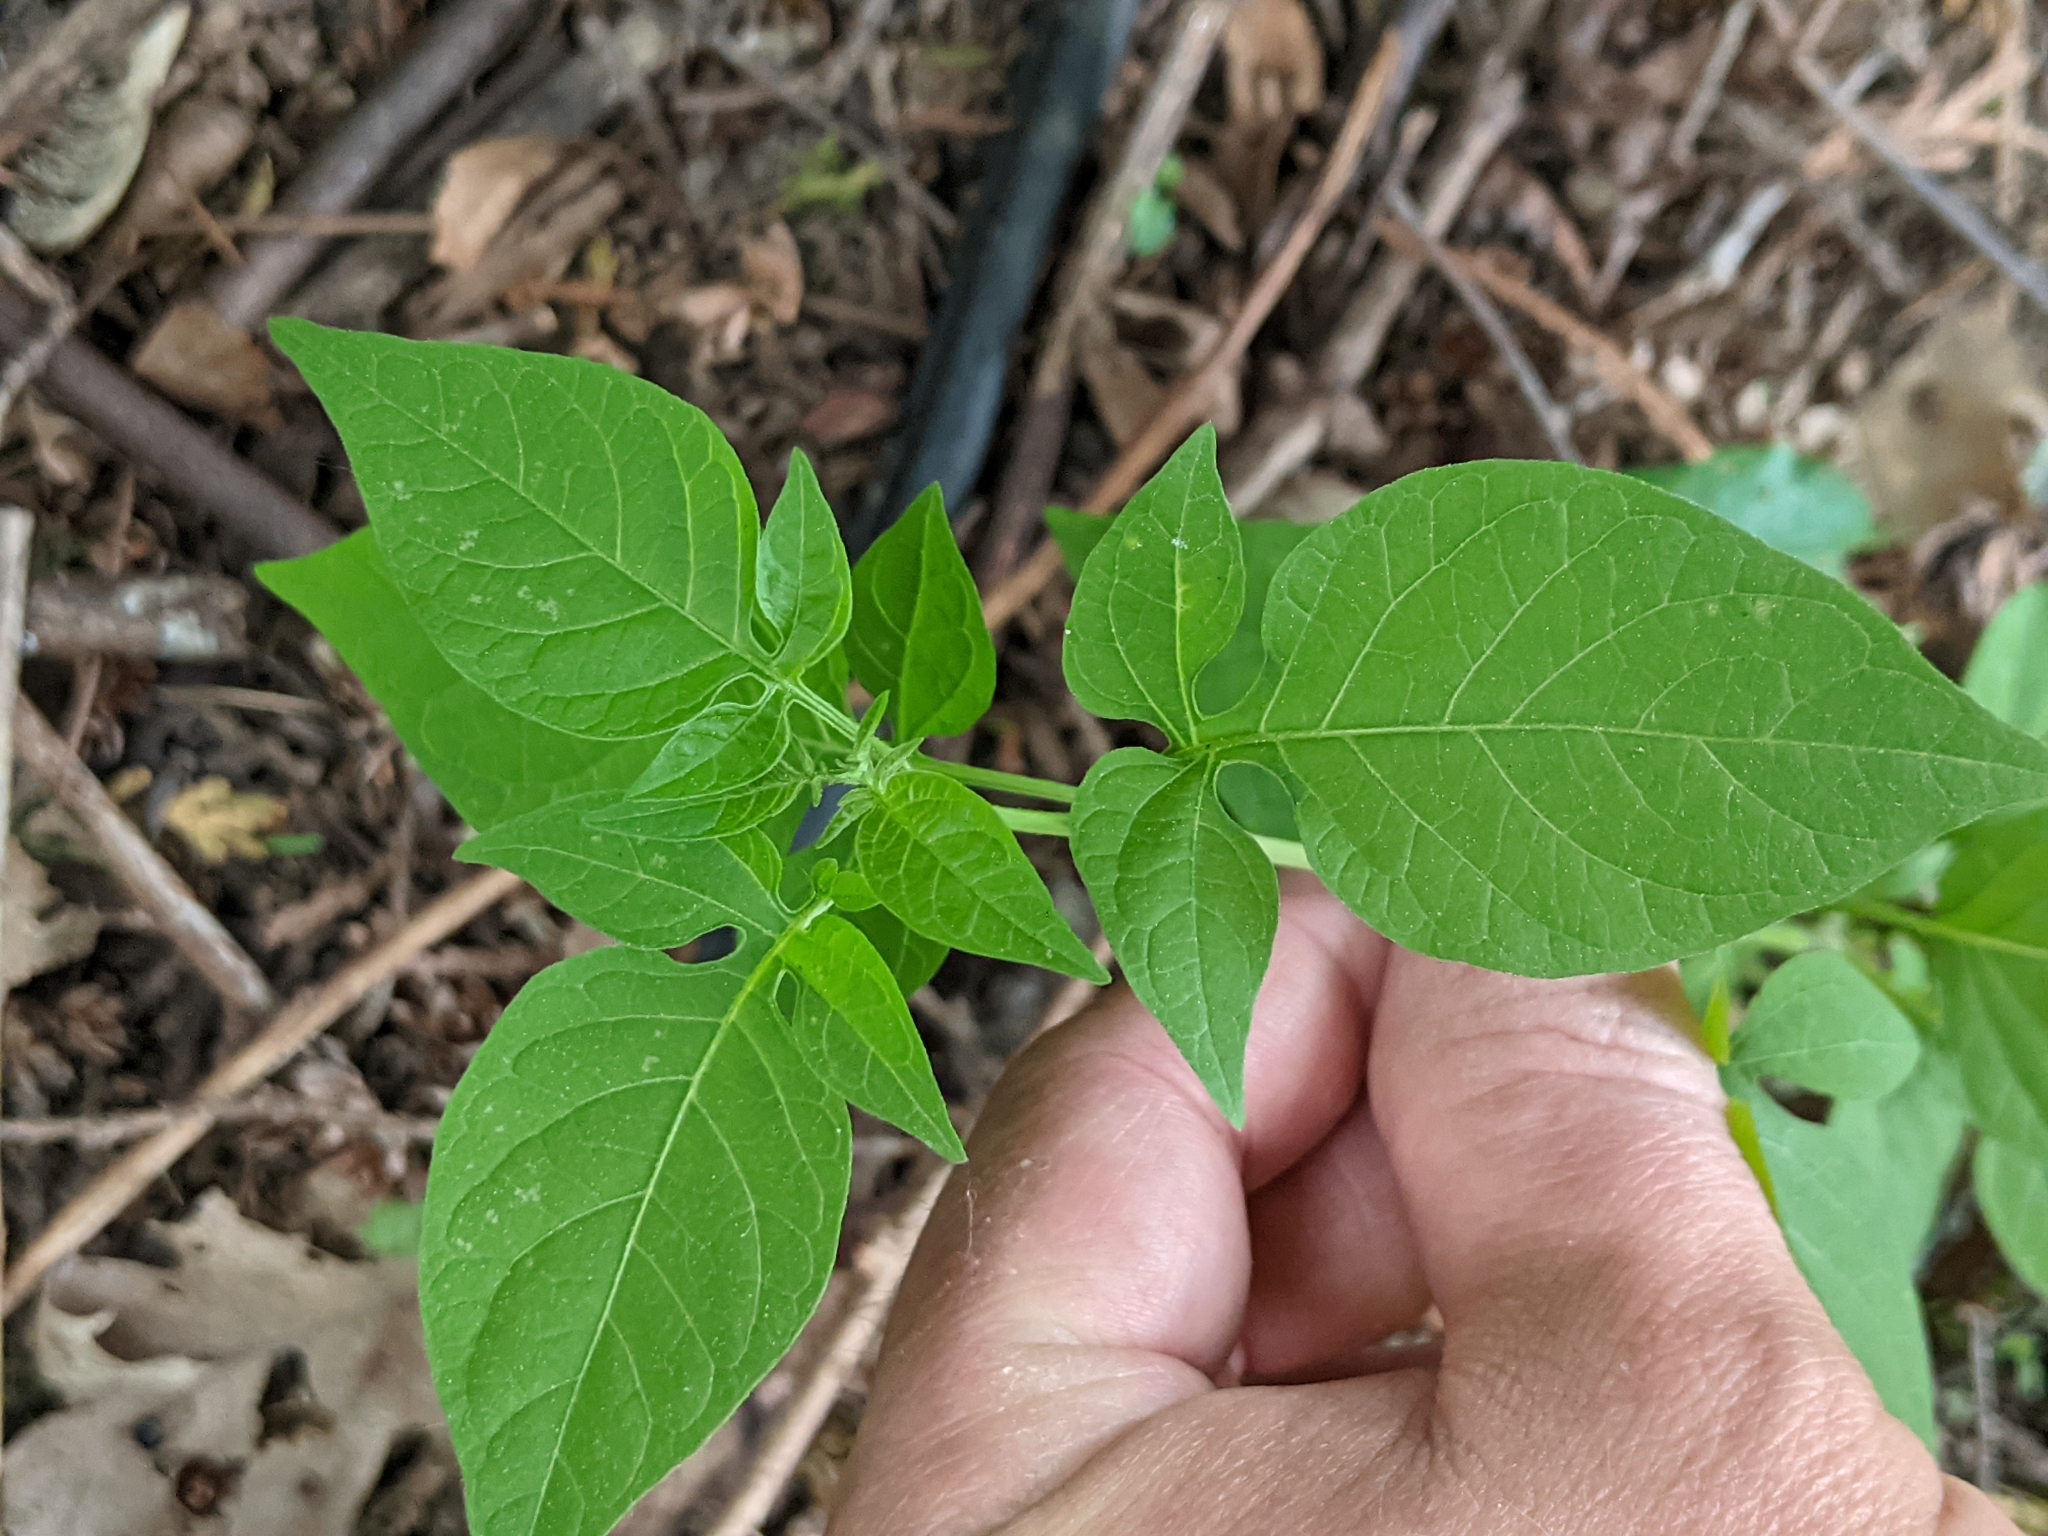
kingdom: Plantae
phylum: Tracheophyta
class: Magnoliopsida
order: Solanales
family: Solanaceae
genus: Solanum
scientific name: Solanum dulcamara
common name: Climbing nightshade
